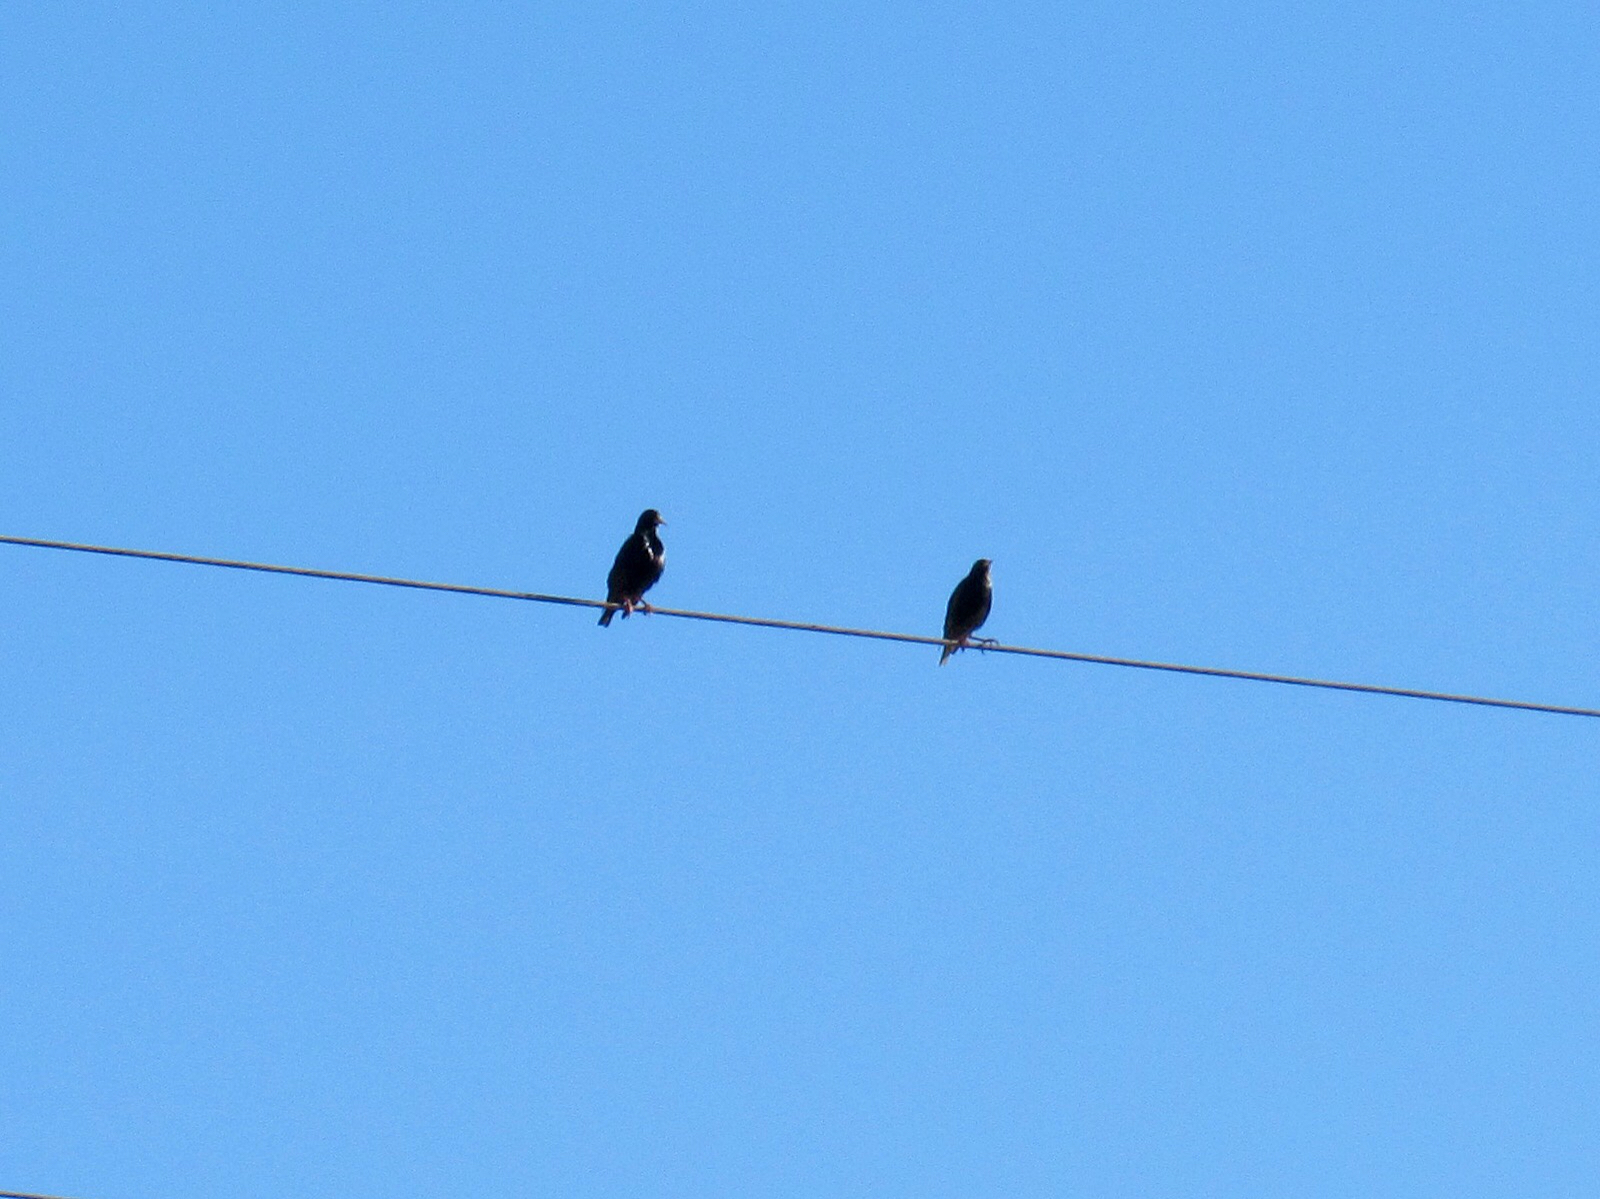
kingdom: Animalia
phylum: Chordata
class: Aves
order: Passeriformes
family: Sturnidae
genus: Sturnus
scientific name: Sturnus vulgaris
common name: Common starling
